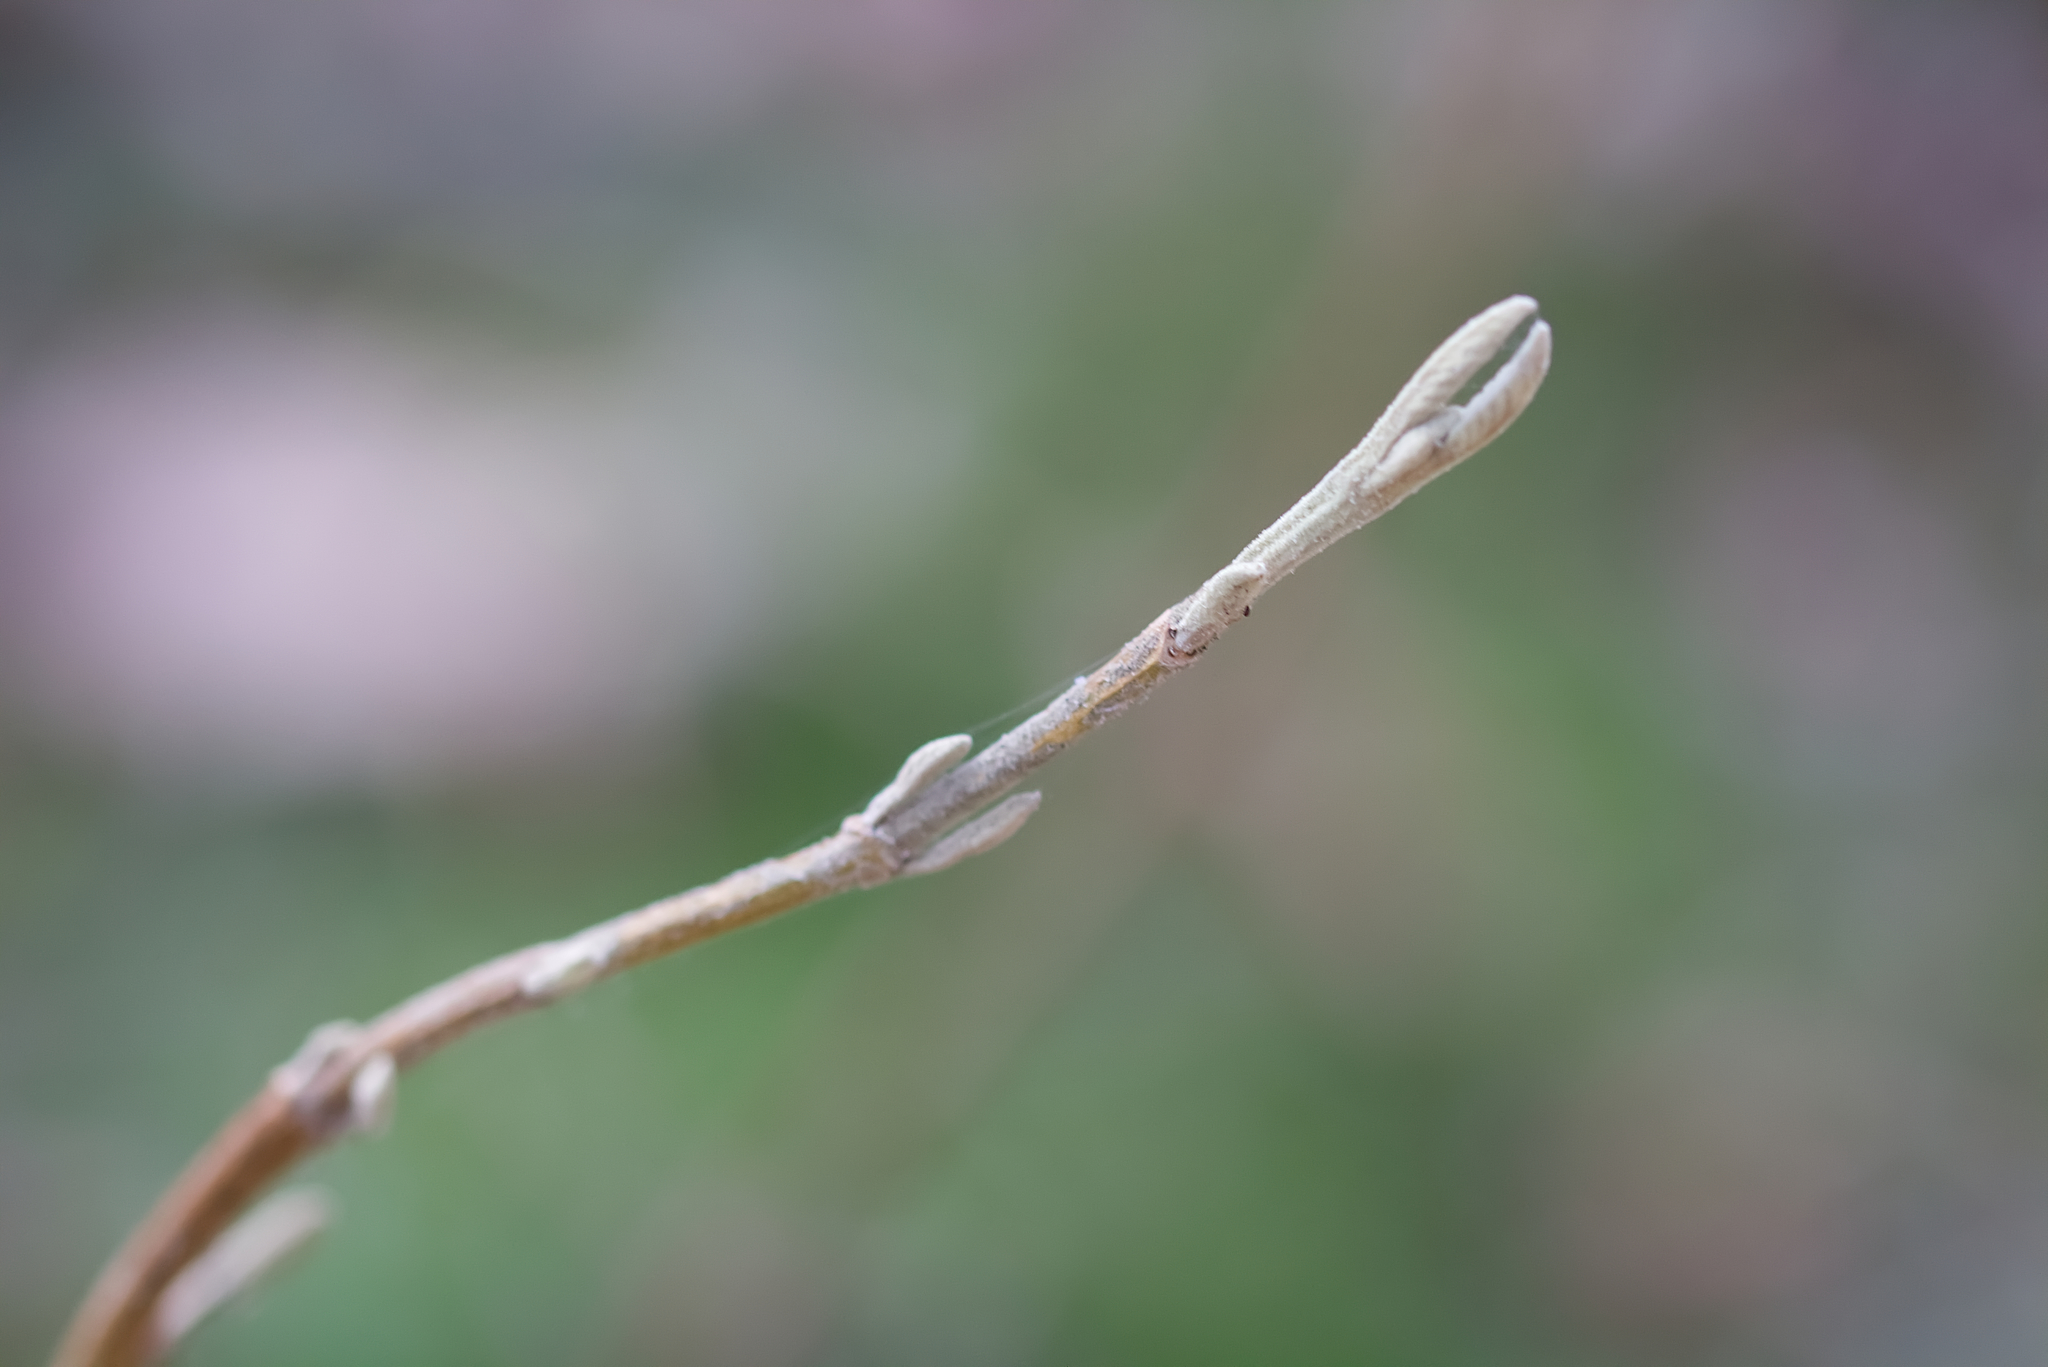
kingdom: Plantae
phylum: Tracheophyta
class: Magnoliopsida
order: Dipsacales
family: Viburnaceae
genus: Viburnum
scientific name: Viburnum lantana
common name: Wayfaring tree
